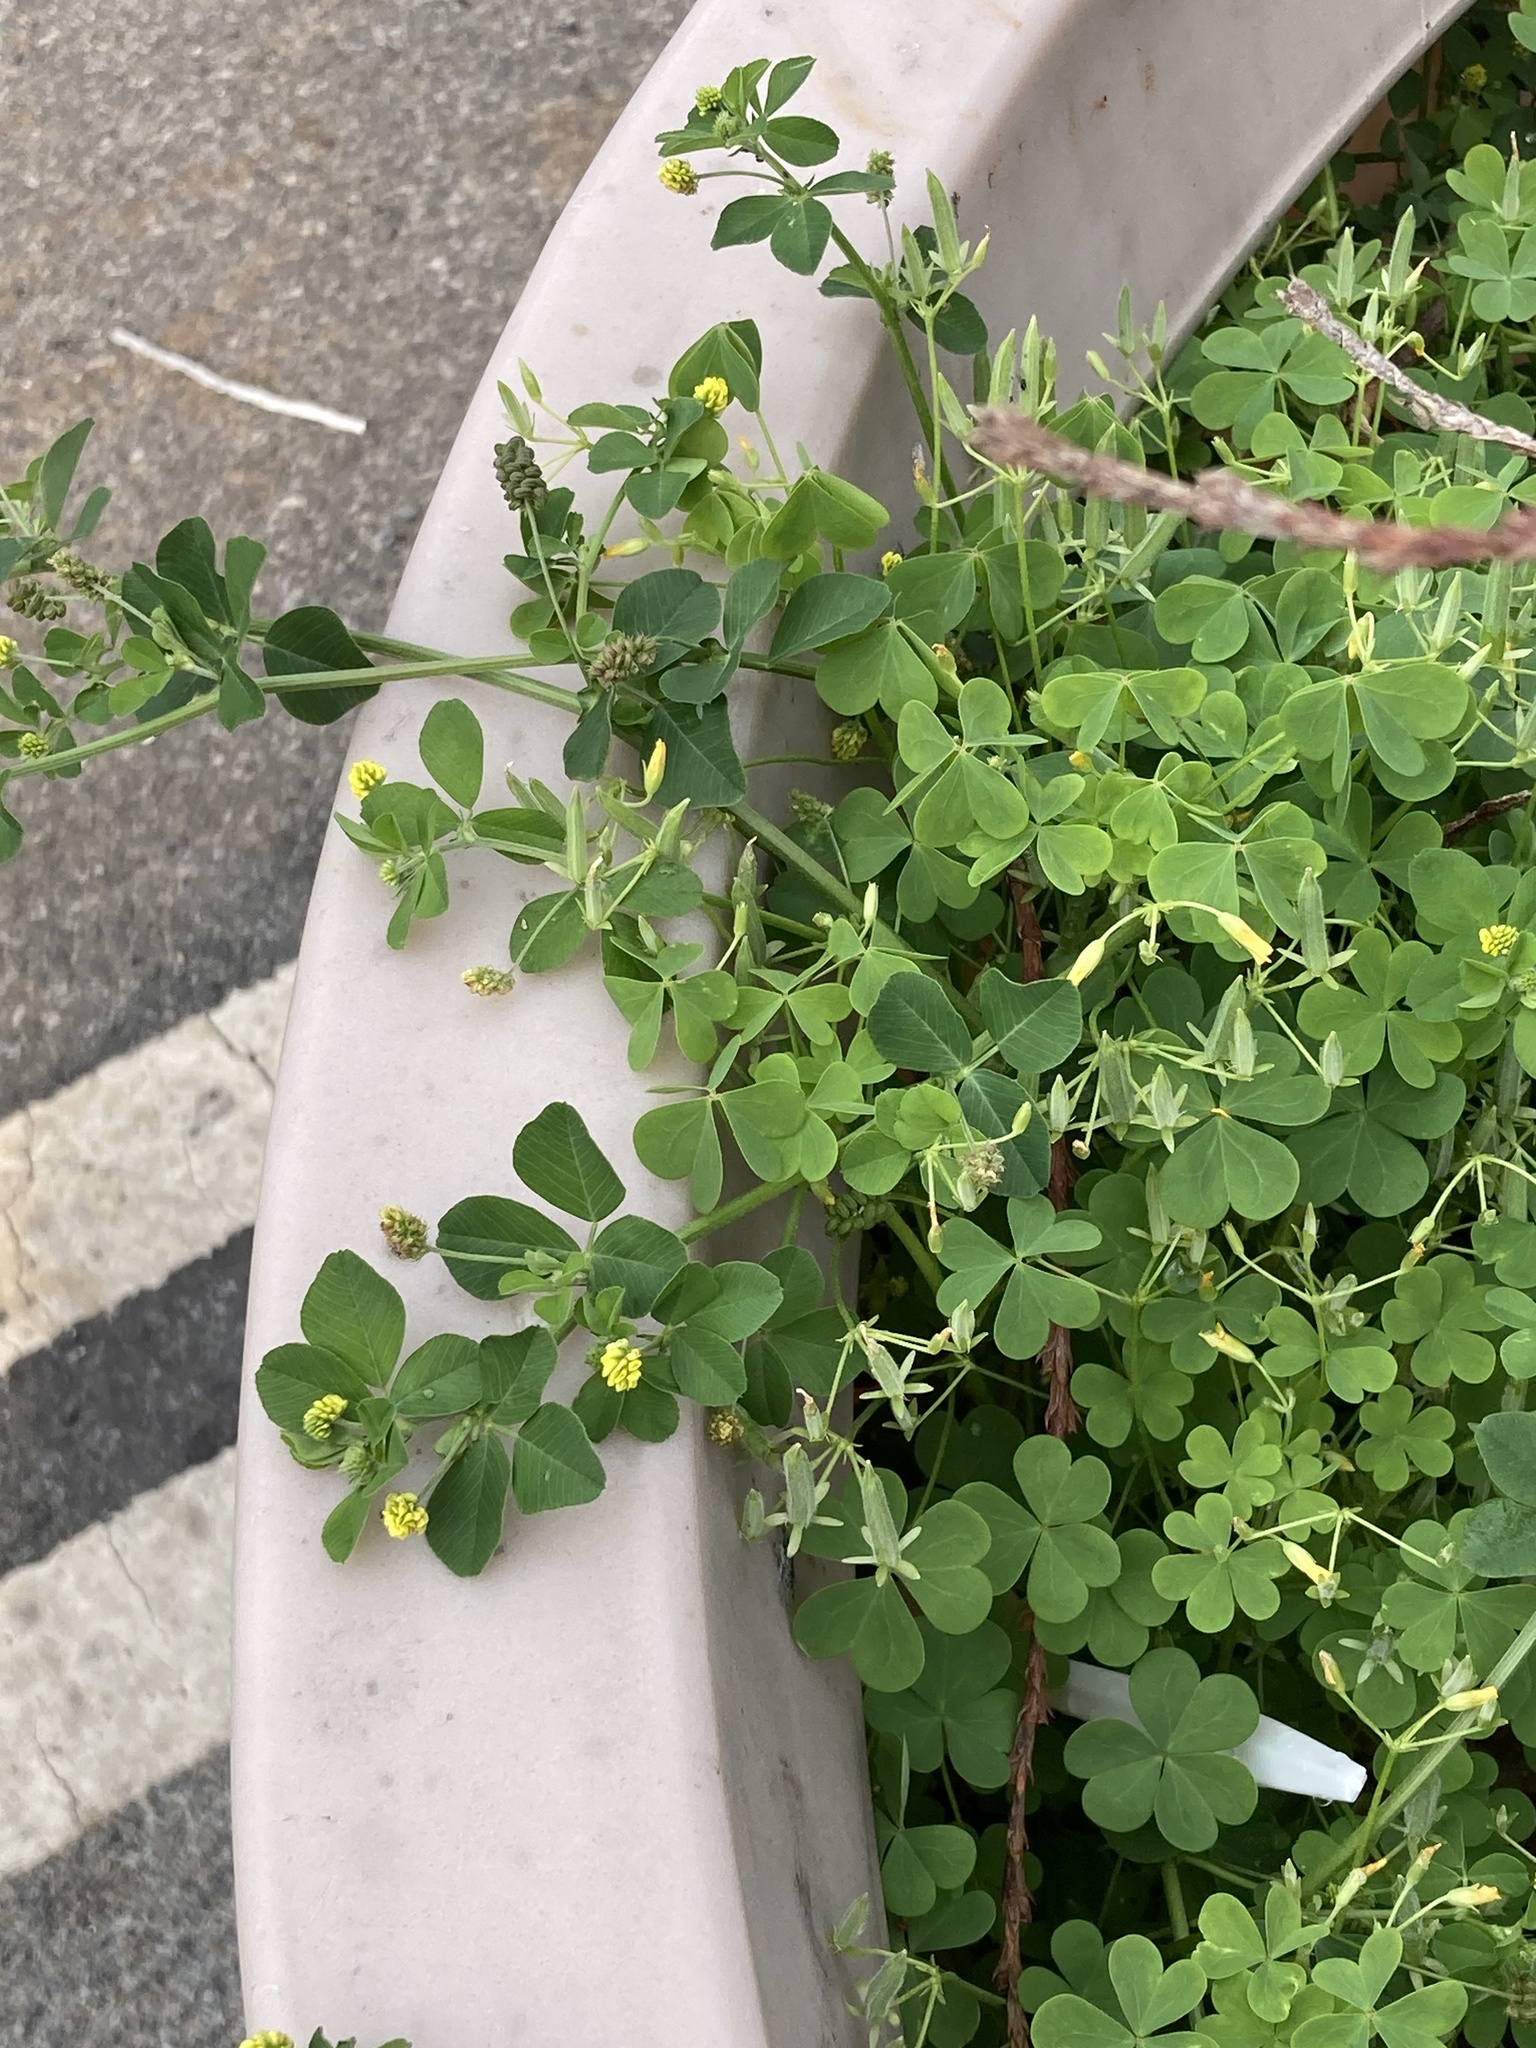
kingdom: Plantae
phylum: Tracheophyta
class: Magnoliopsida
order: Fabales
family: Fabaceae
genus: Medicago
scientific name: Medicago lupulina
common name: Black medick
